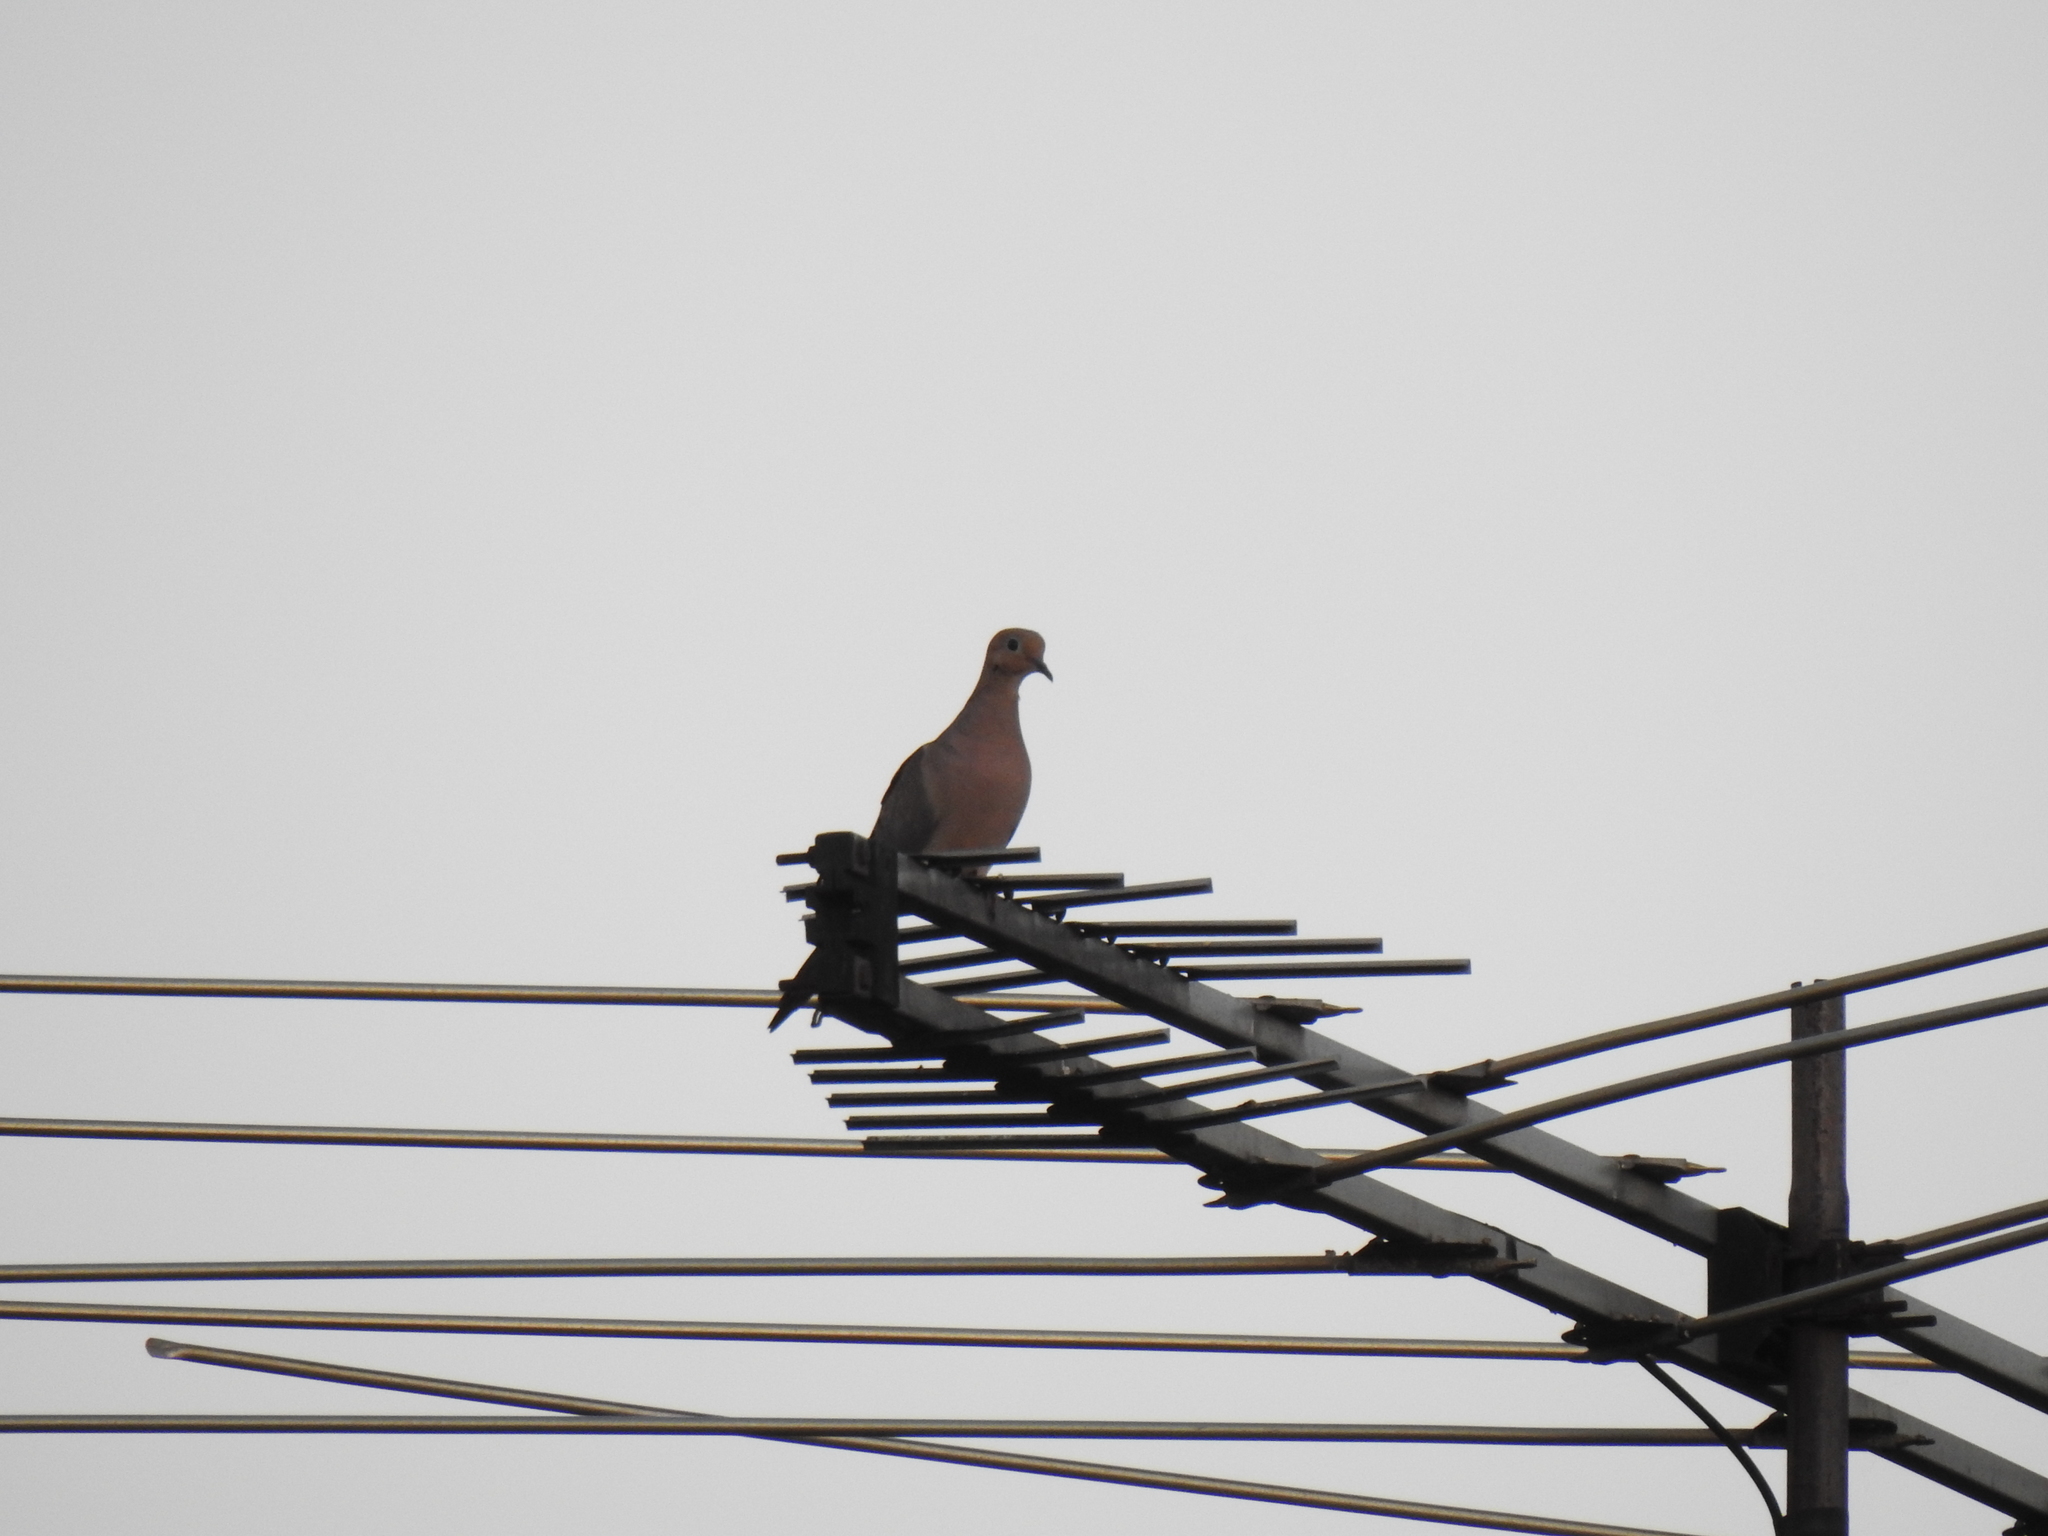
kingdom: Animalia
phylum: Chordata
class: Aves
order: Columbiformes
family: Columbidae
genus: Zenaida
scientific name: Zenaida macroura
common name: Mourning dove
